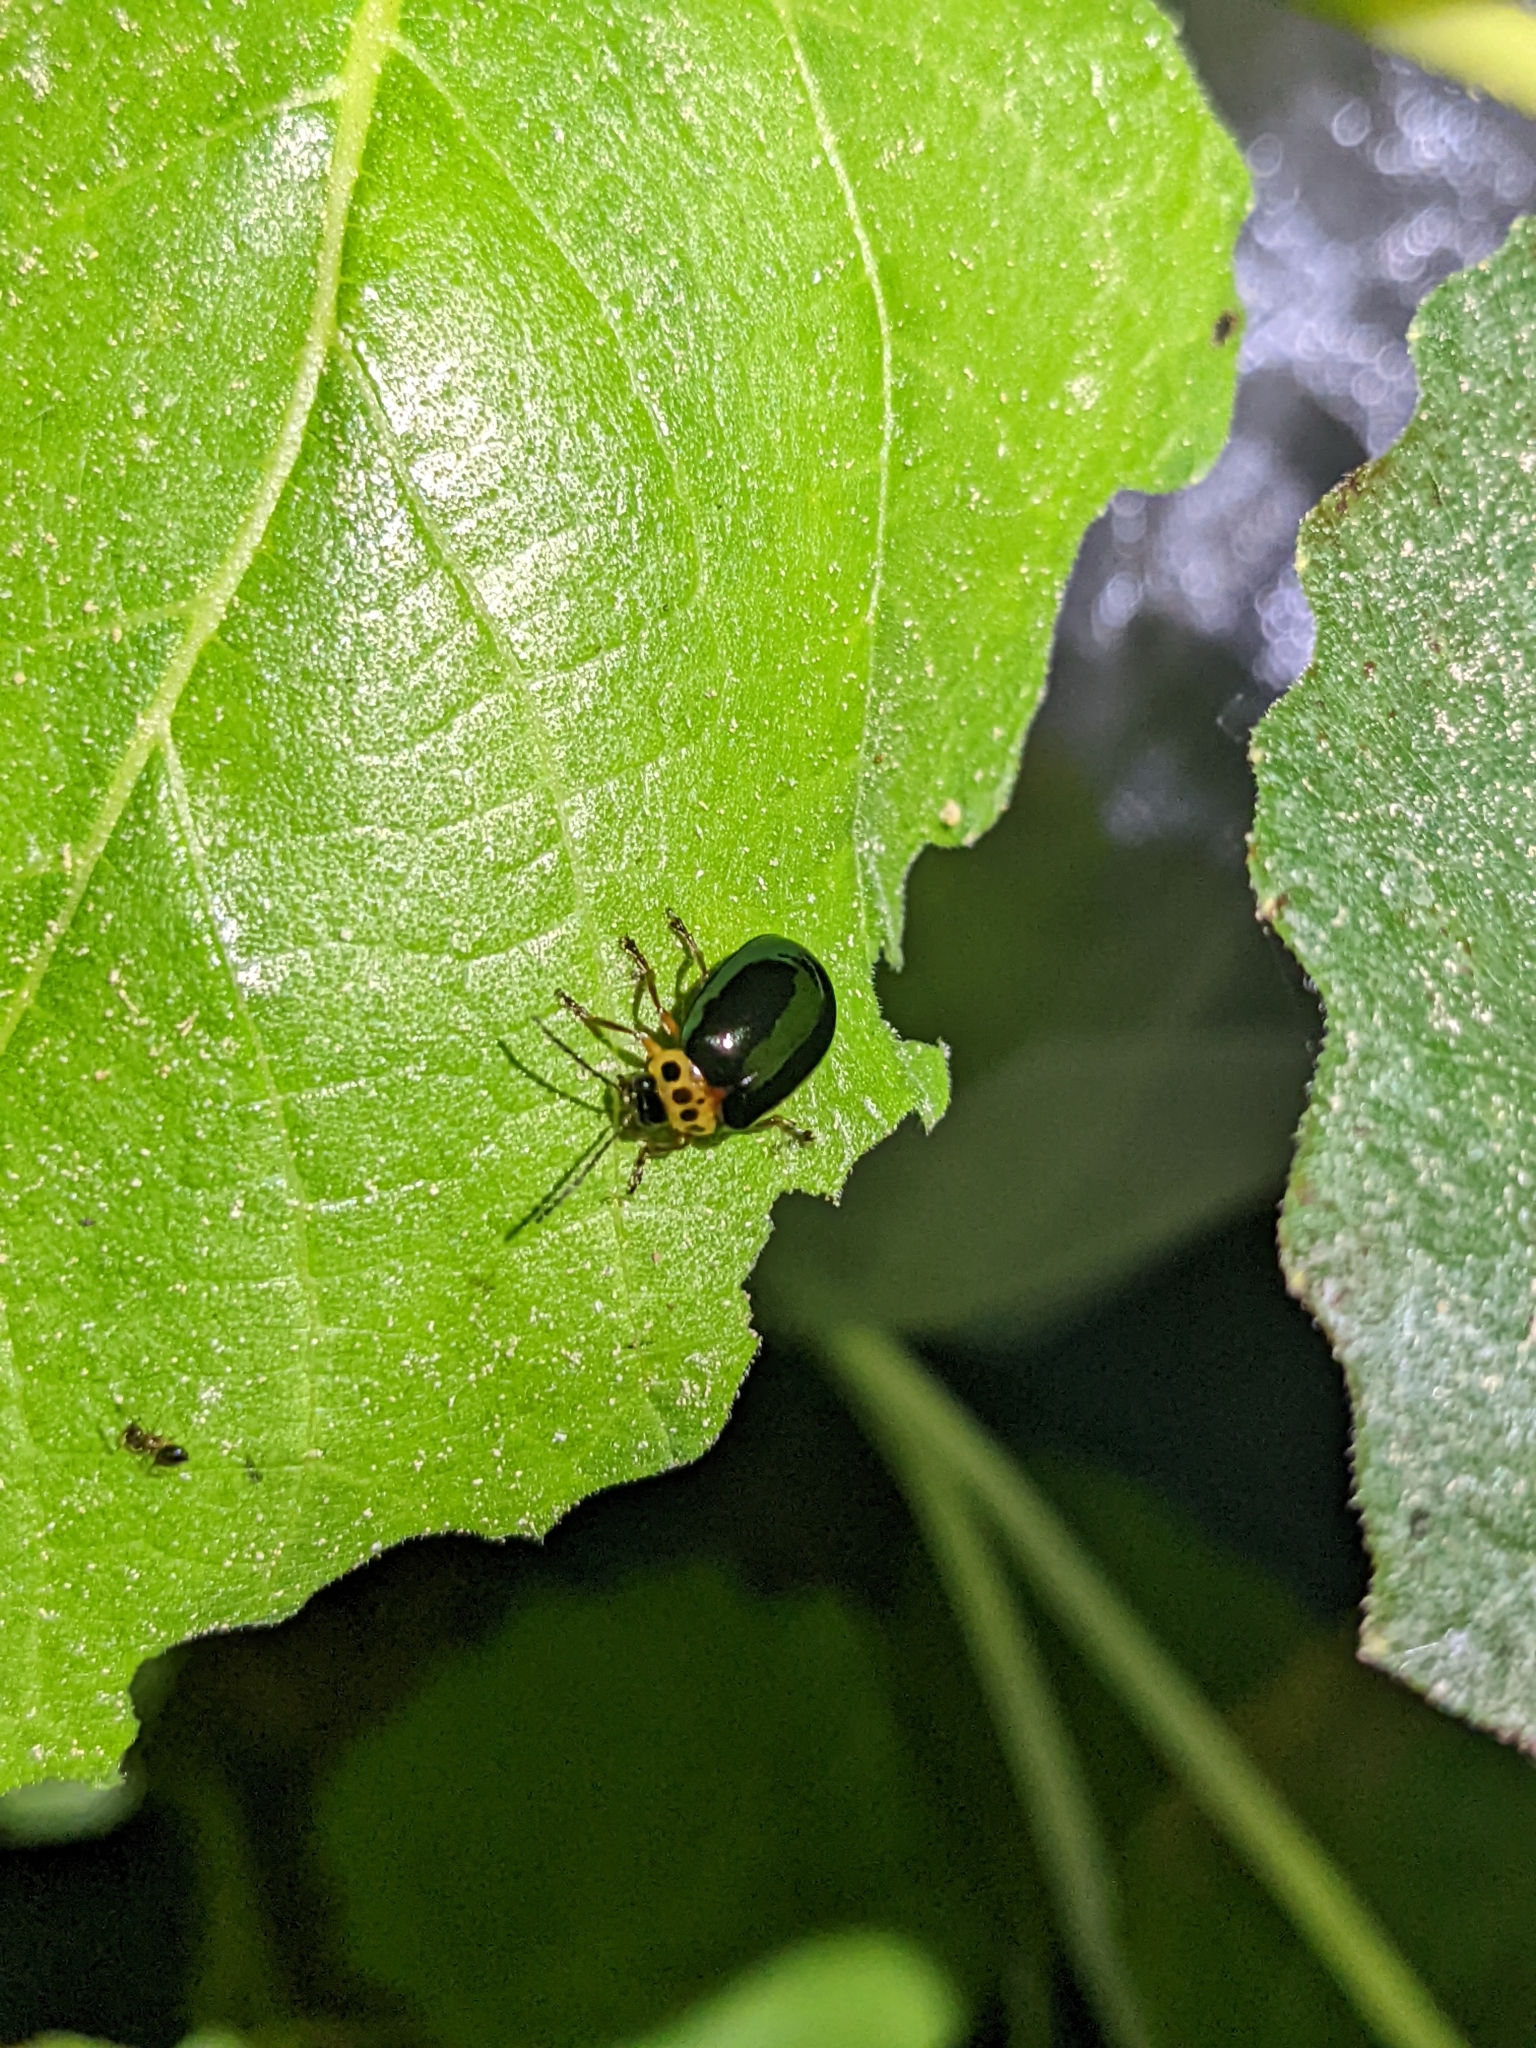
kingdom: Animalia
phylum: Arthropoda
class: Insecta
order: Coleoptera
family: Chrysomelidae
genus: Morphosphaera
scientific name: Morphosphaera chrysomeloides
